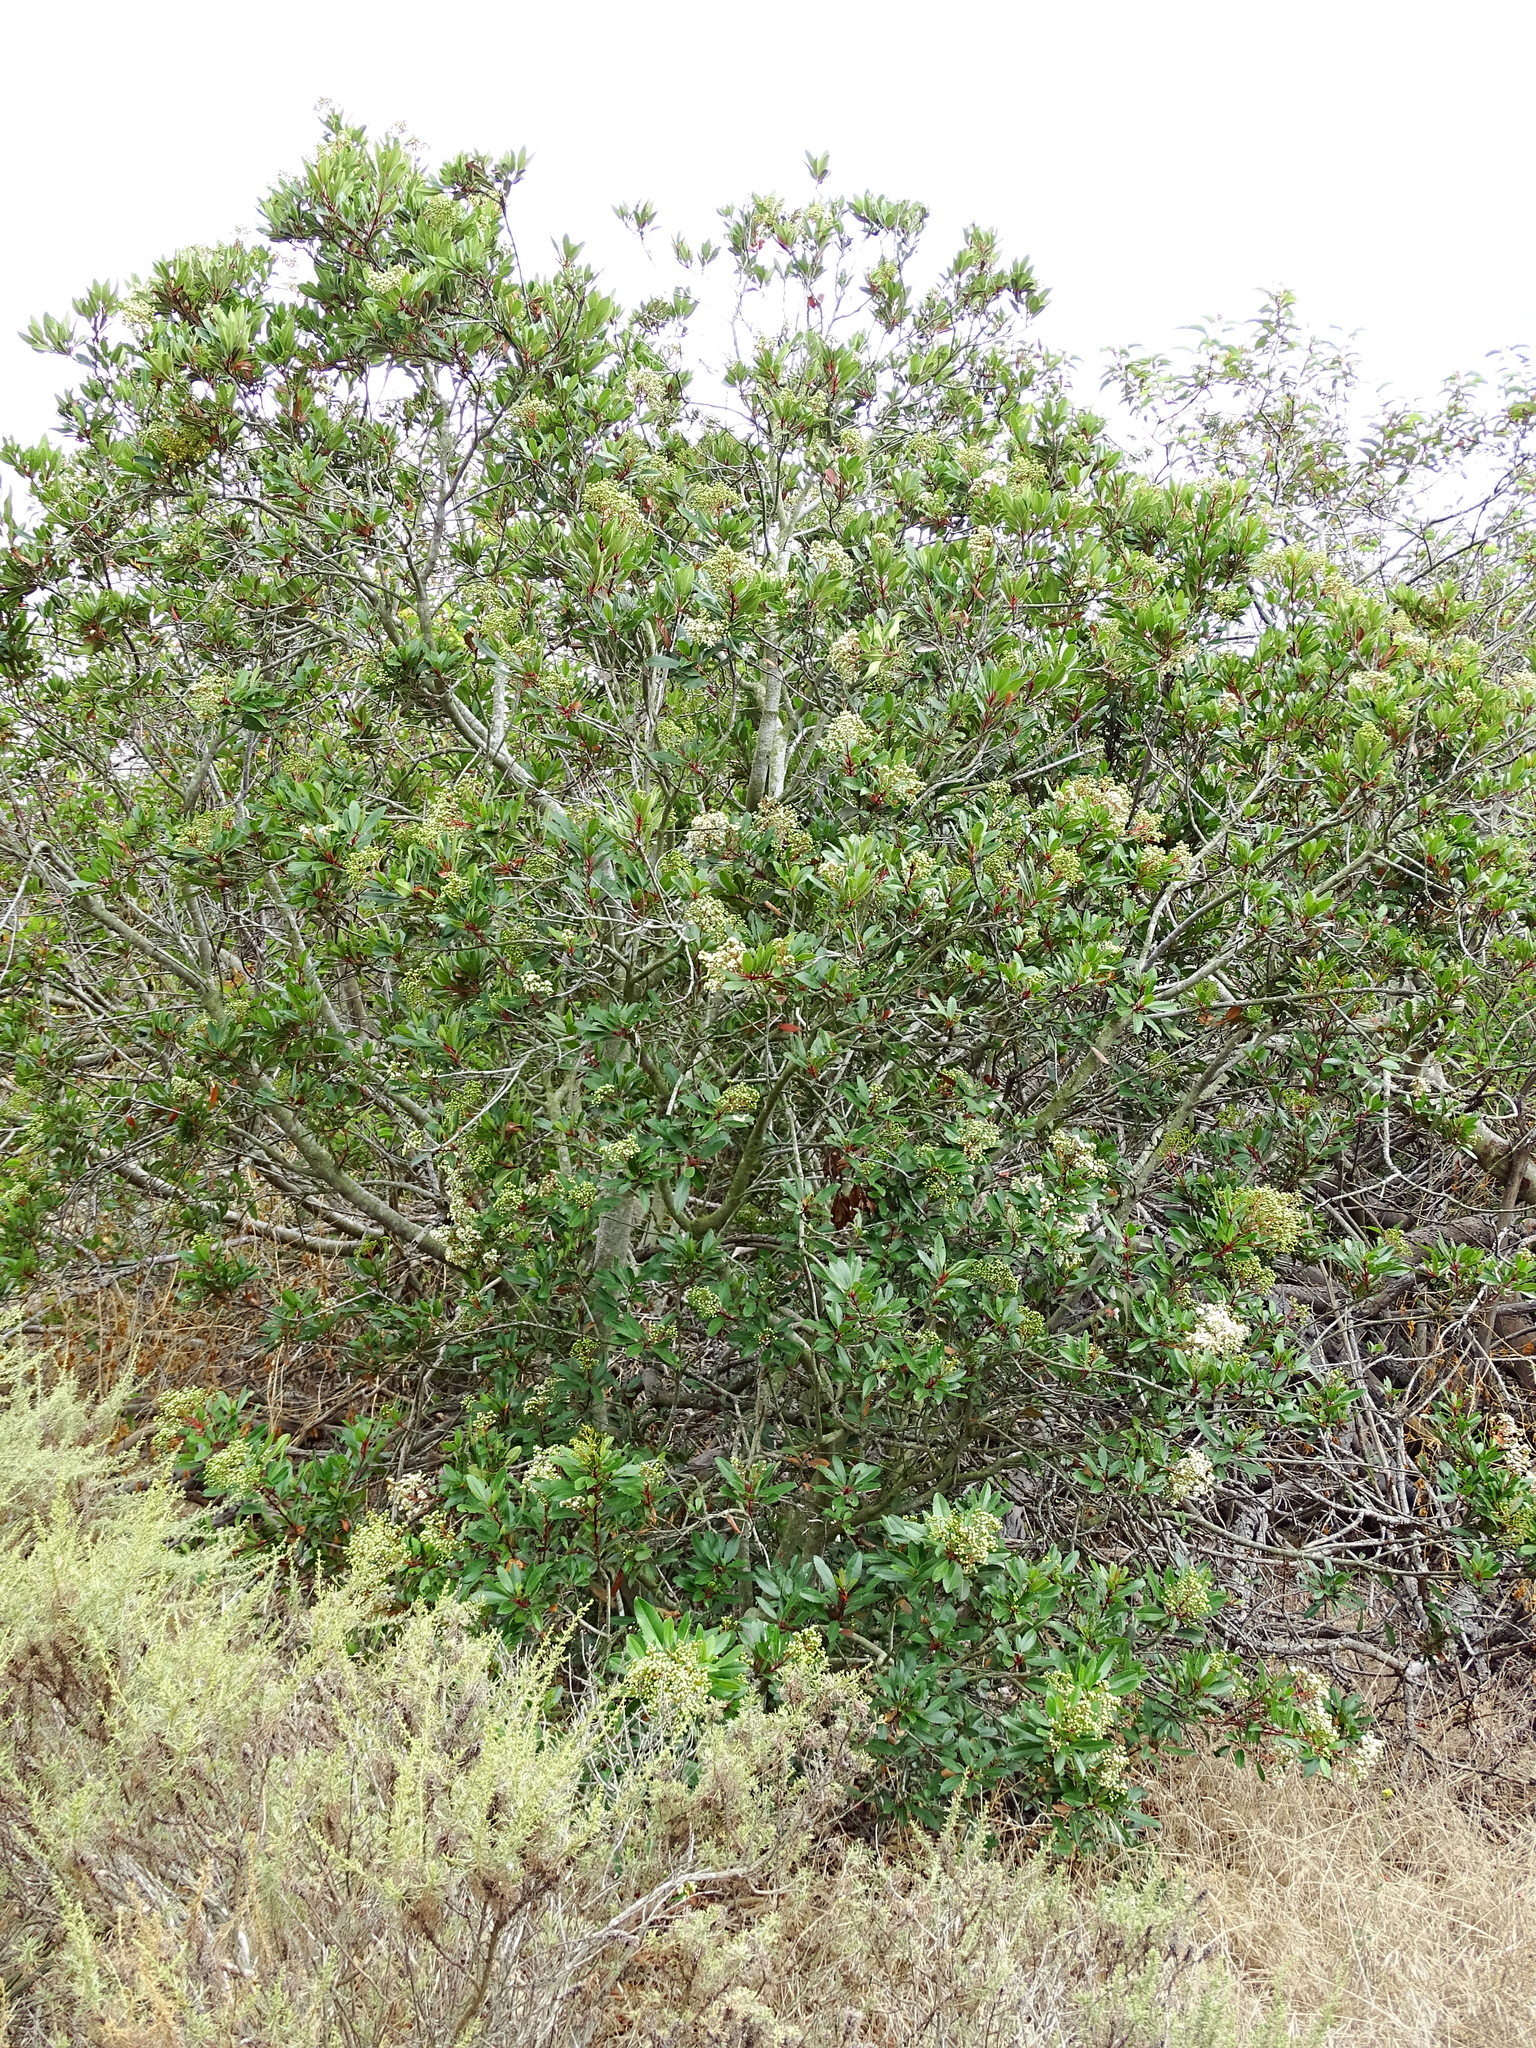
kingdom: Plantae
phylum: Tracheophyta
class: Magnoliopsida
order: Rosales
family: Rosaceae
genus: Heteromeles
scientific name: Heteromeles arbutifolia
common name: California-holly
